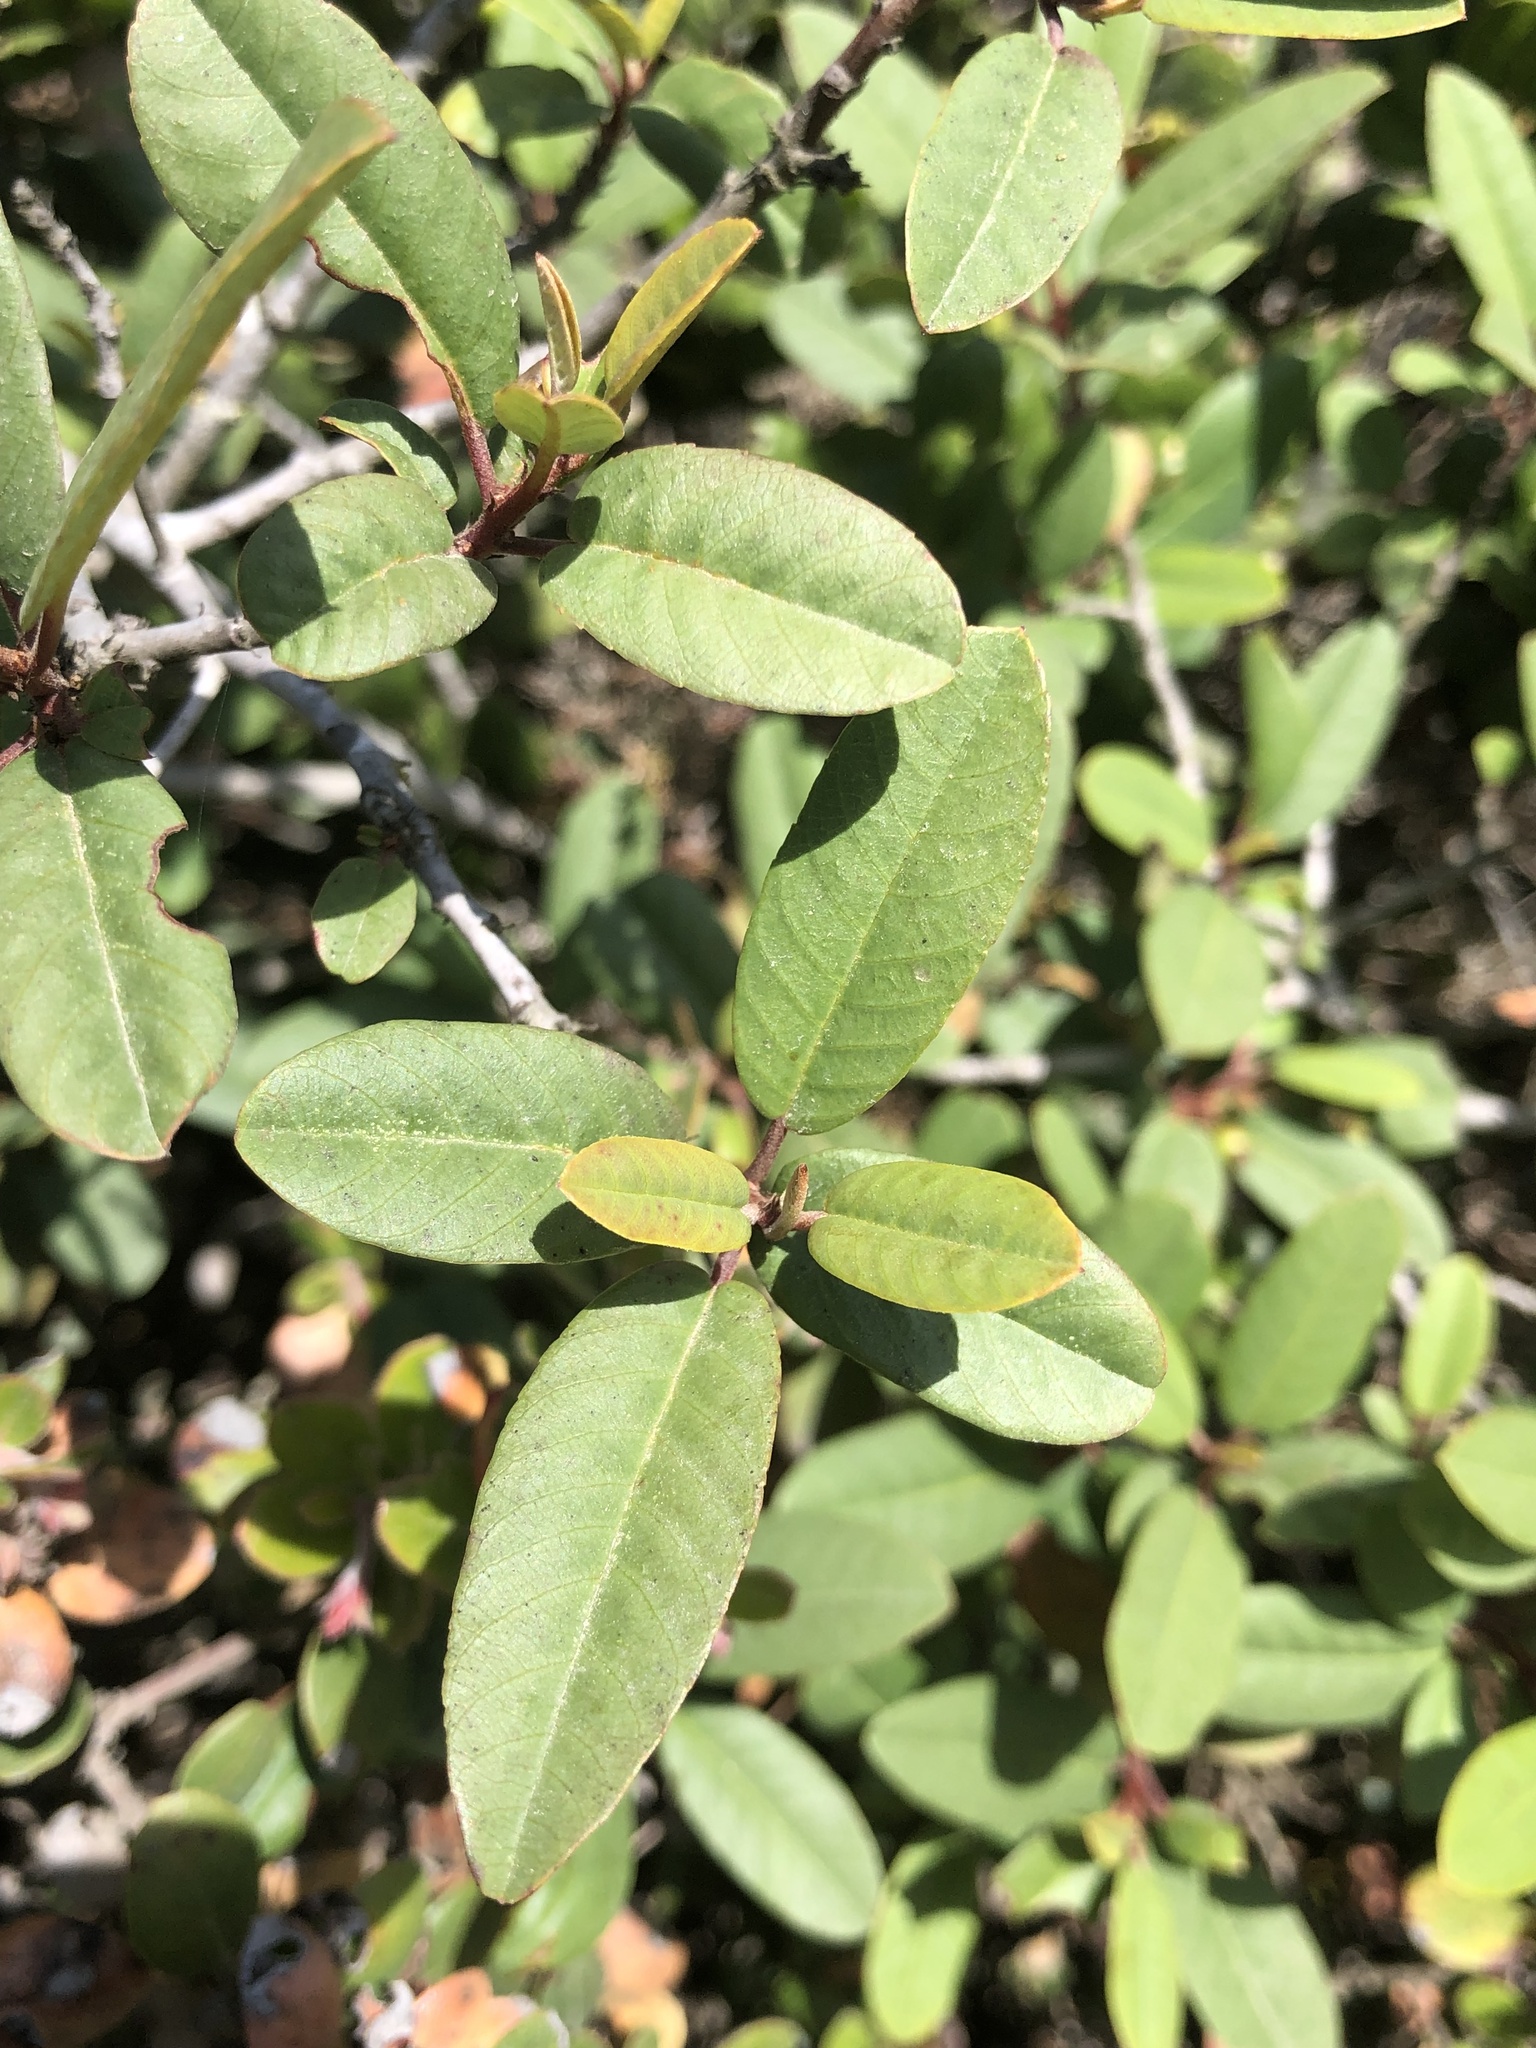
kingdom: Plantae
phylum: Tracheophyta
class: Magnoliopsida
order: Rosales
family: Rhamnaceae
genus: Frangula
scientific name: Frangula californica
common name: California buckthorn
